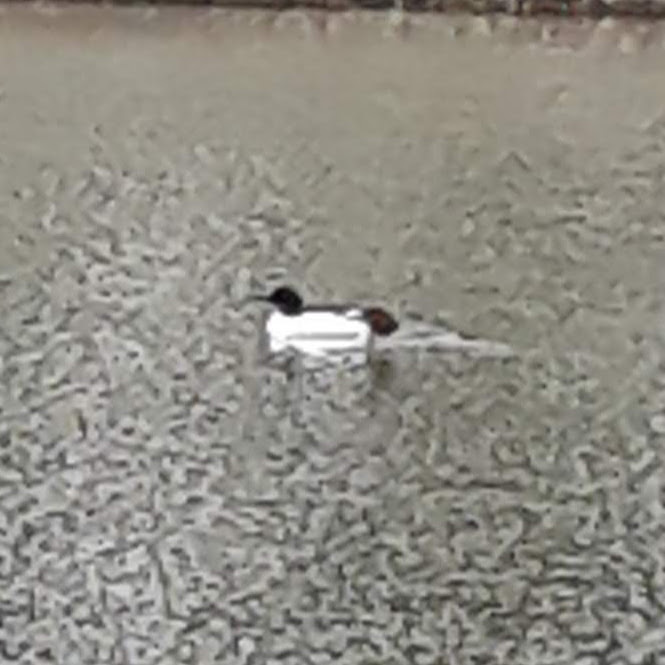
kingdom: Animalia
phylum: Chordata
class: Aves
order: Anseriformes
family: Anatidae
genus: Mergus
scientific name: Mergus merganser
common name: Common merganser
